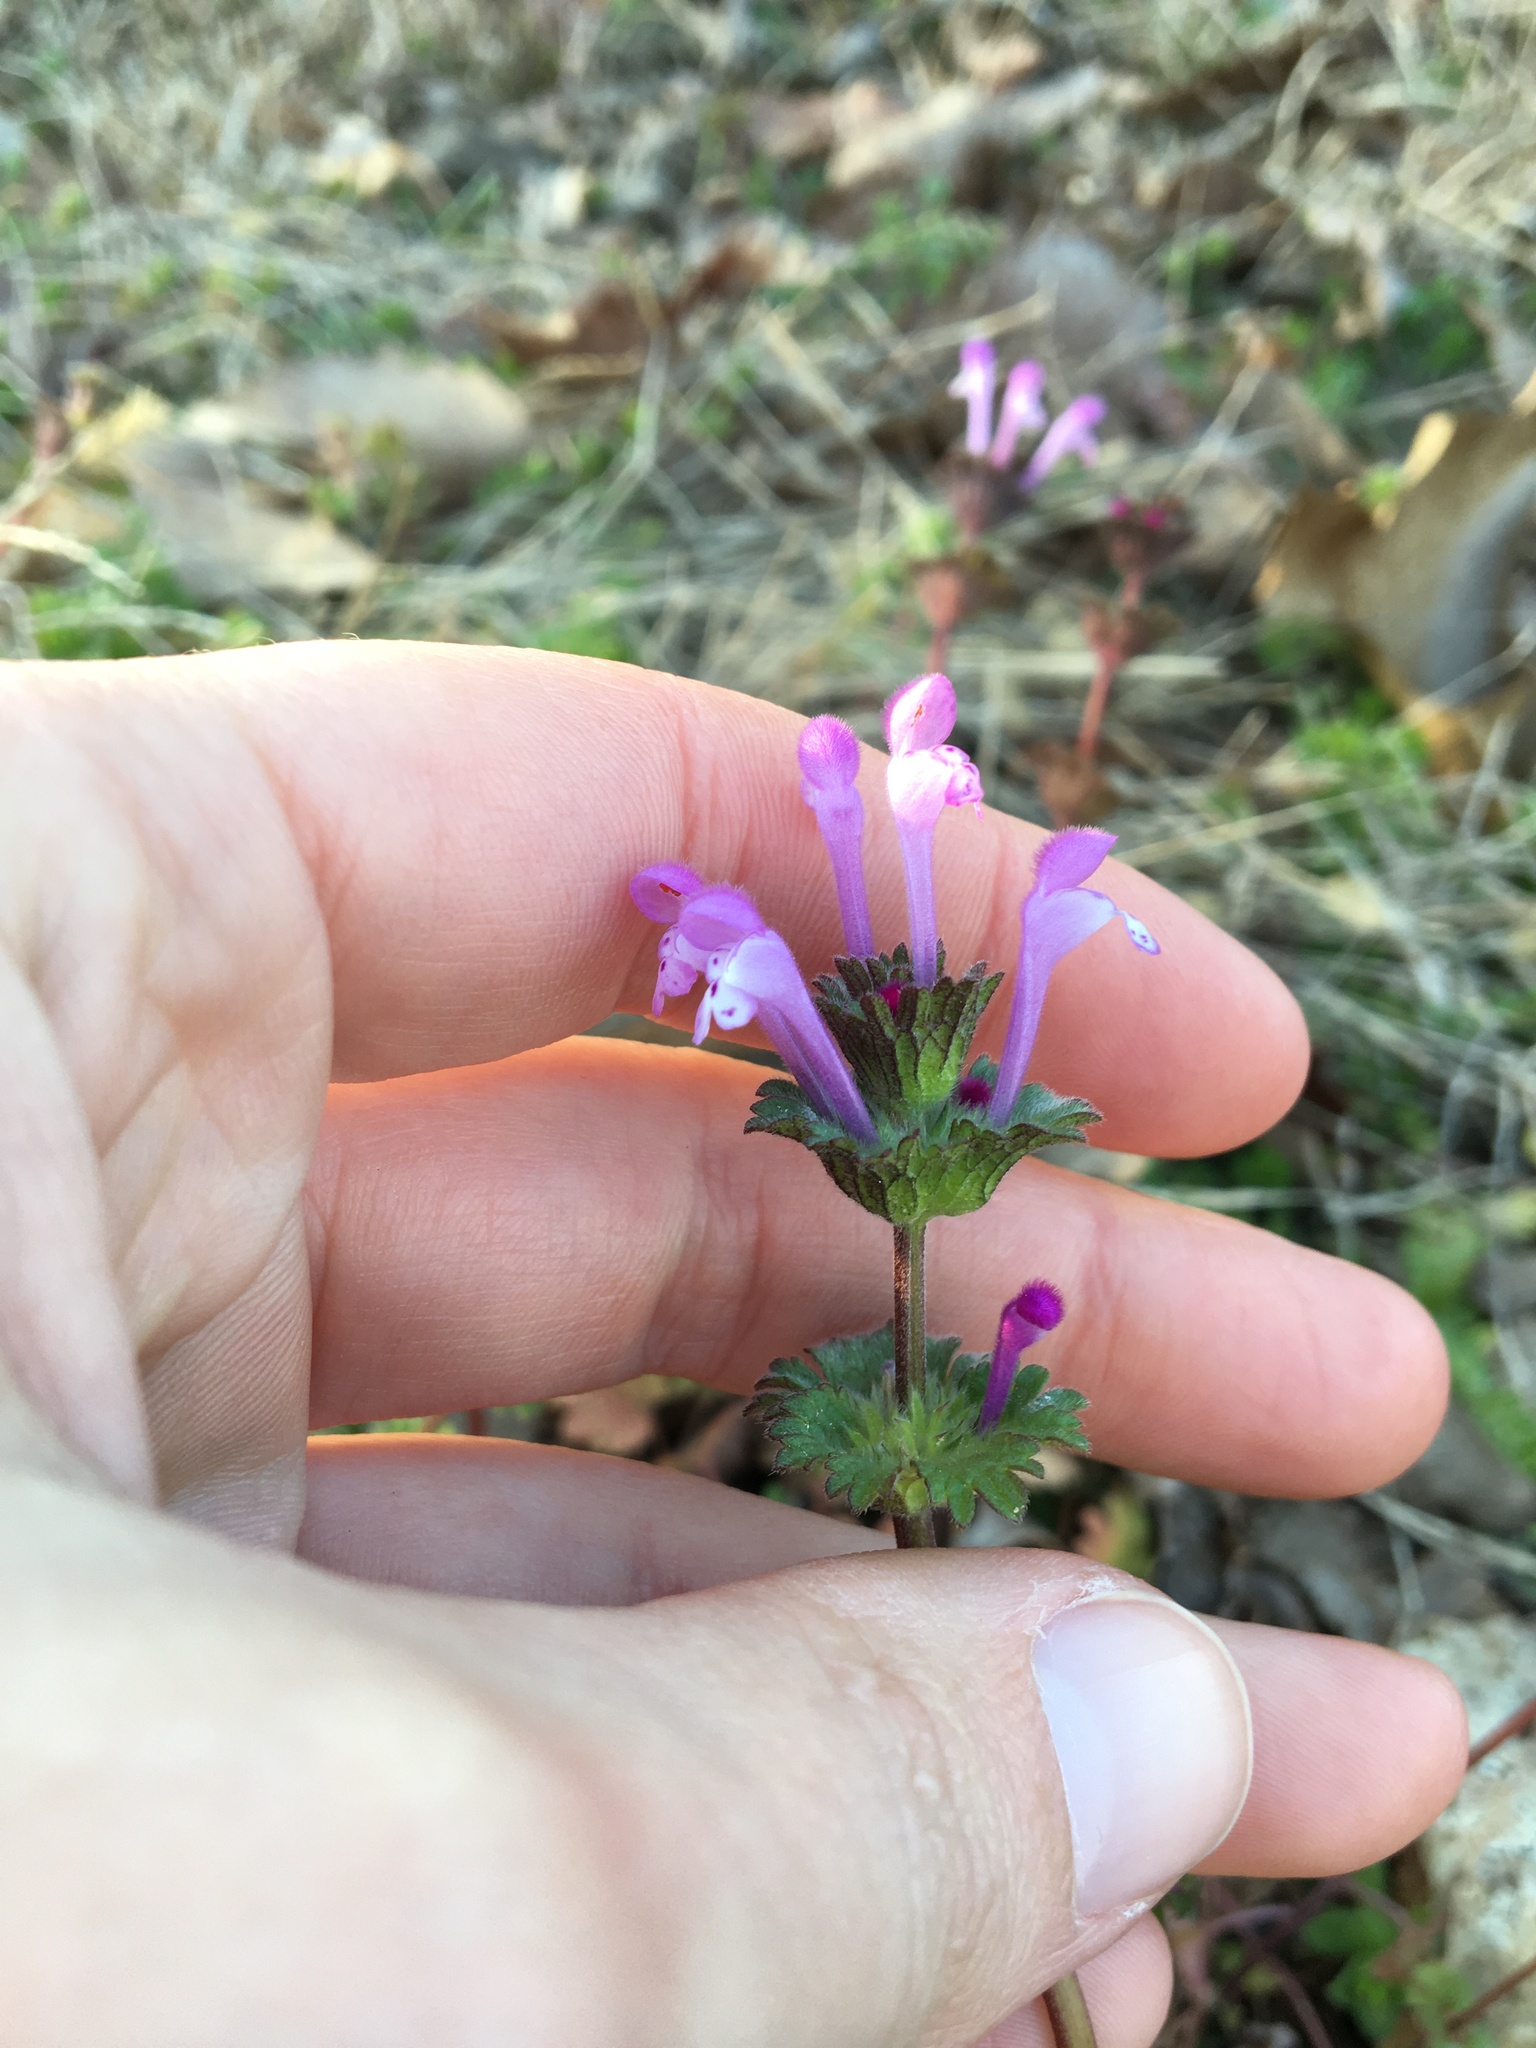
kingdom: Plantae
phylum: Tracheophyta
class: Magnoliopsida
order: Lamiales
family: Lamiaceae
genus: Lamium
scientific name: Lamium amplexicaule
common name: Henbit dead-nettle
